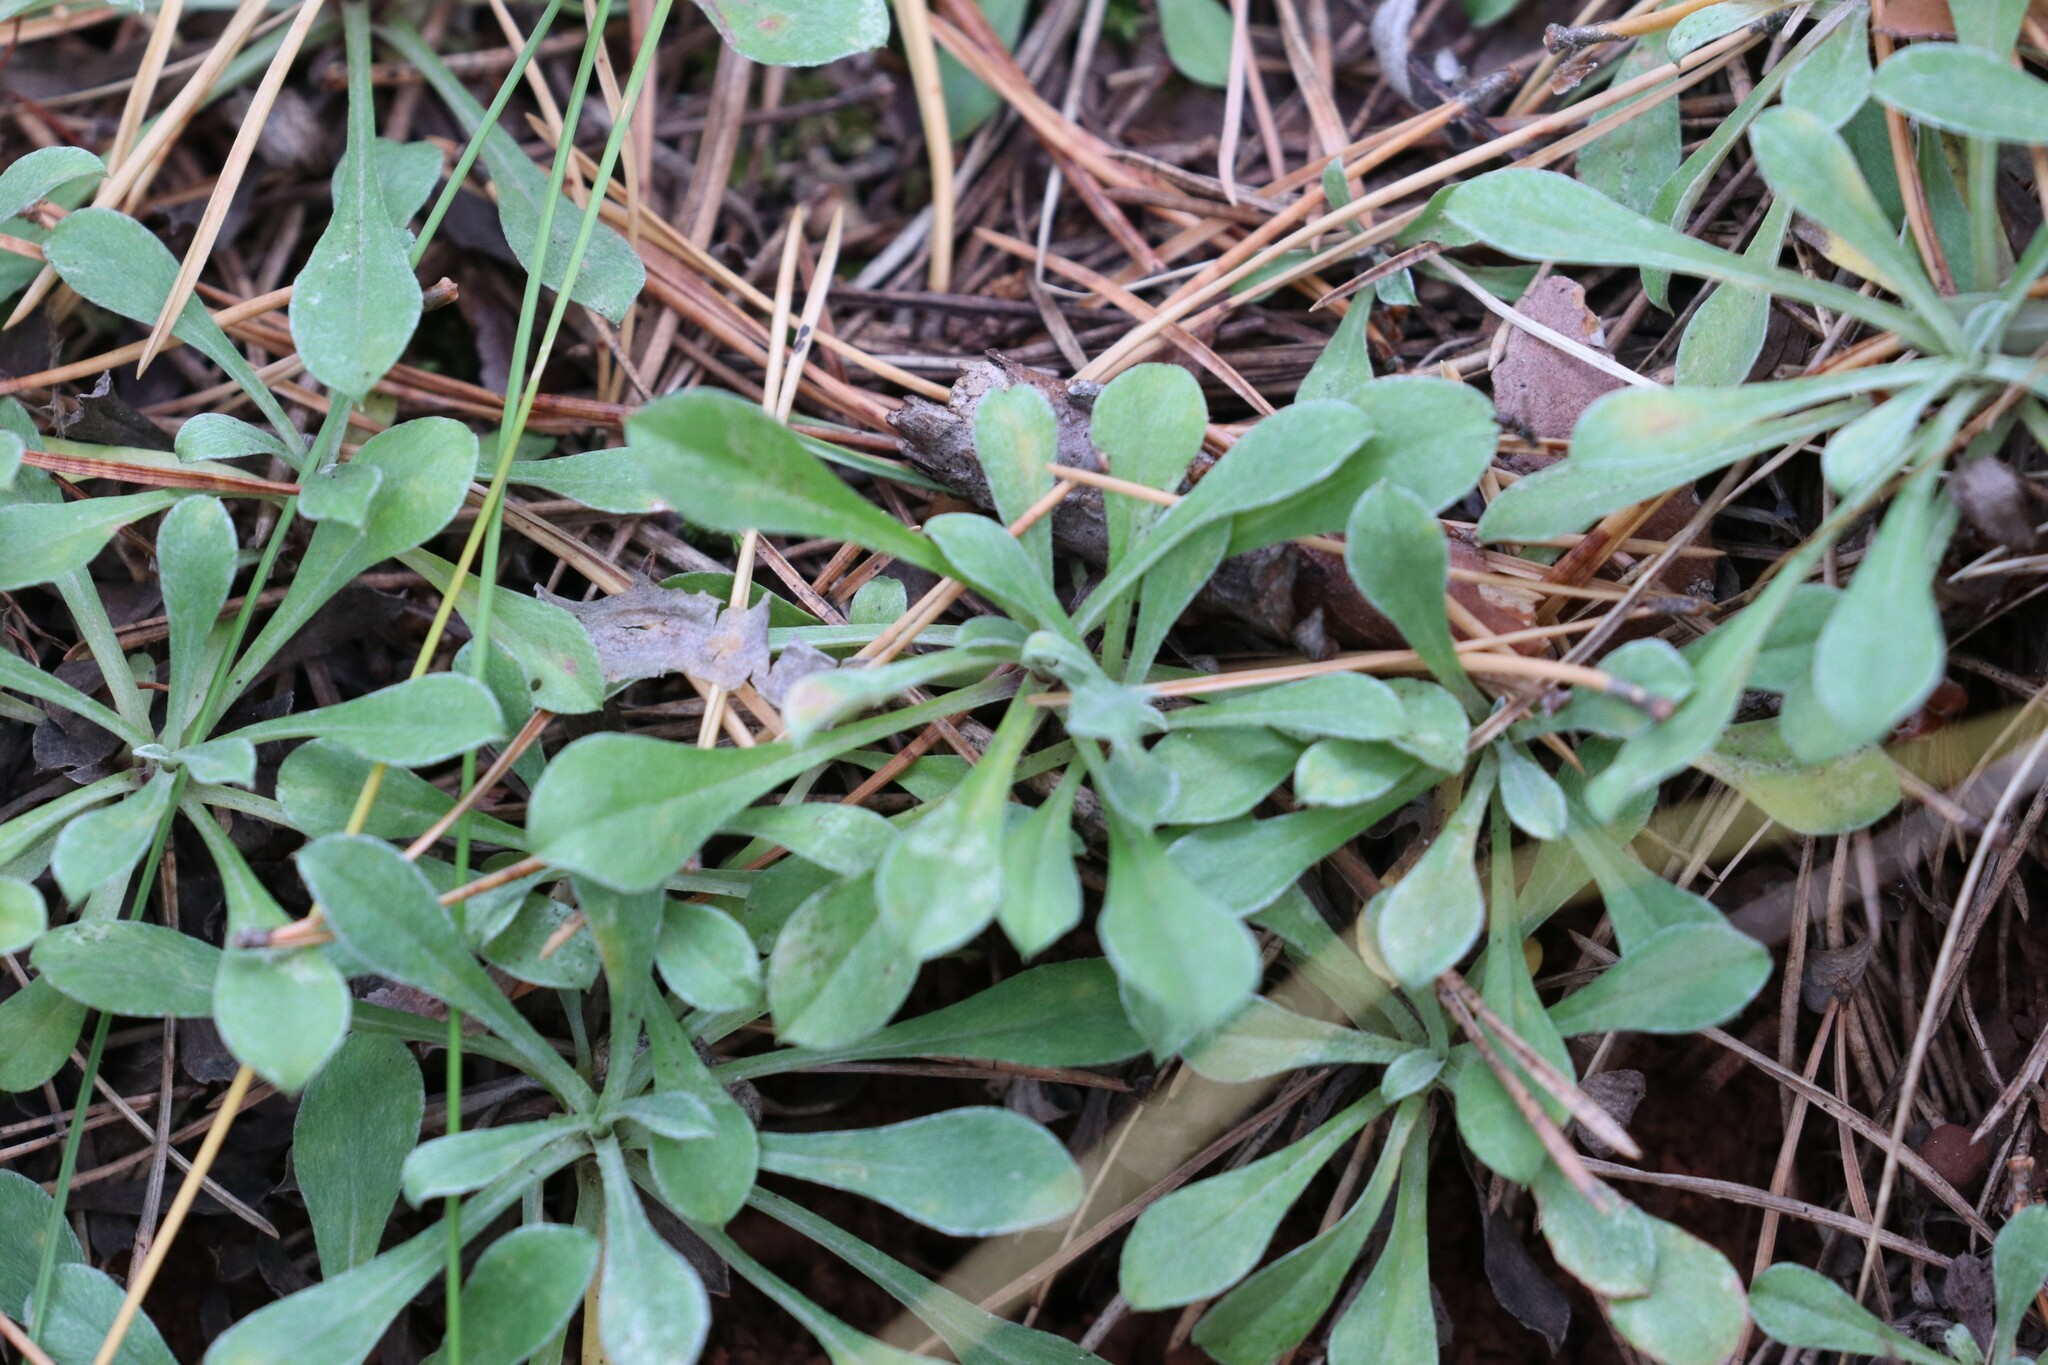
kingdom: Plantae
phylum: Tracheophyta
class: Magnoliopsida
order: Asterales
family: Asteraceae
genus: Antennaria
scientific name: Antennaria dioica
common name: Mountain everlasting
